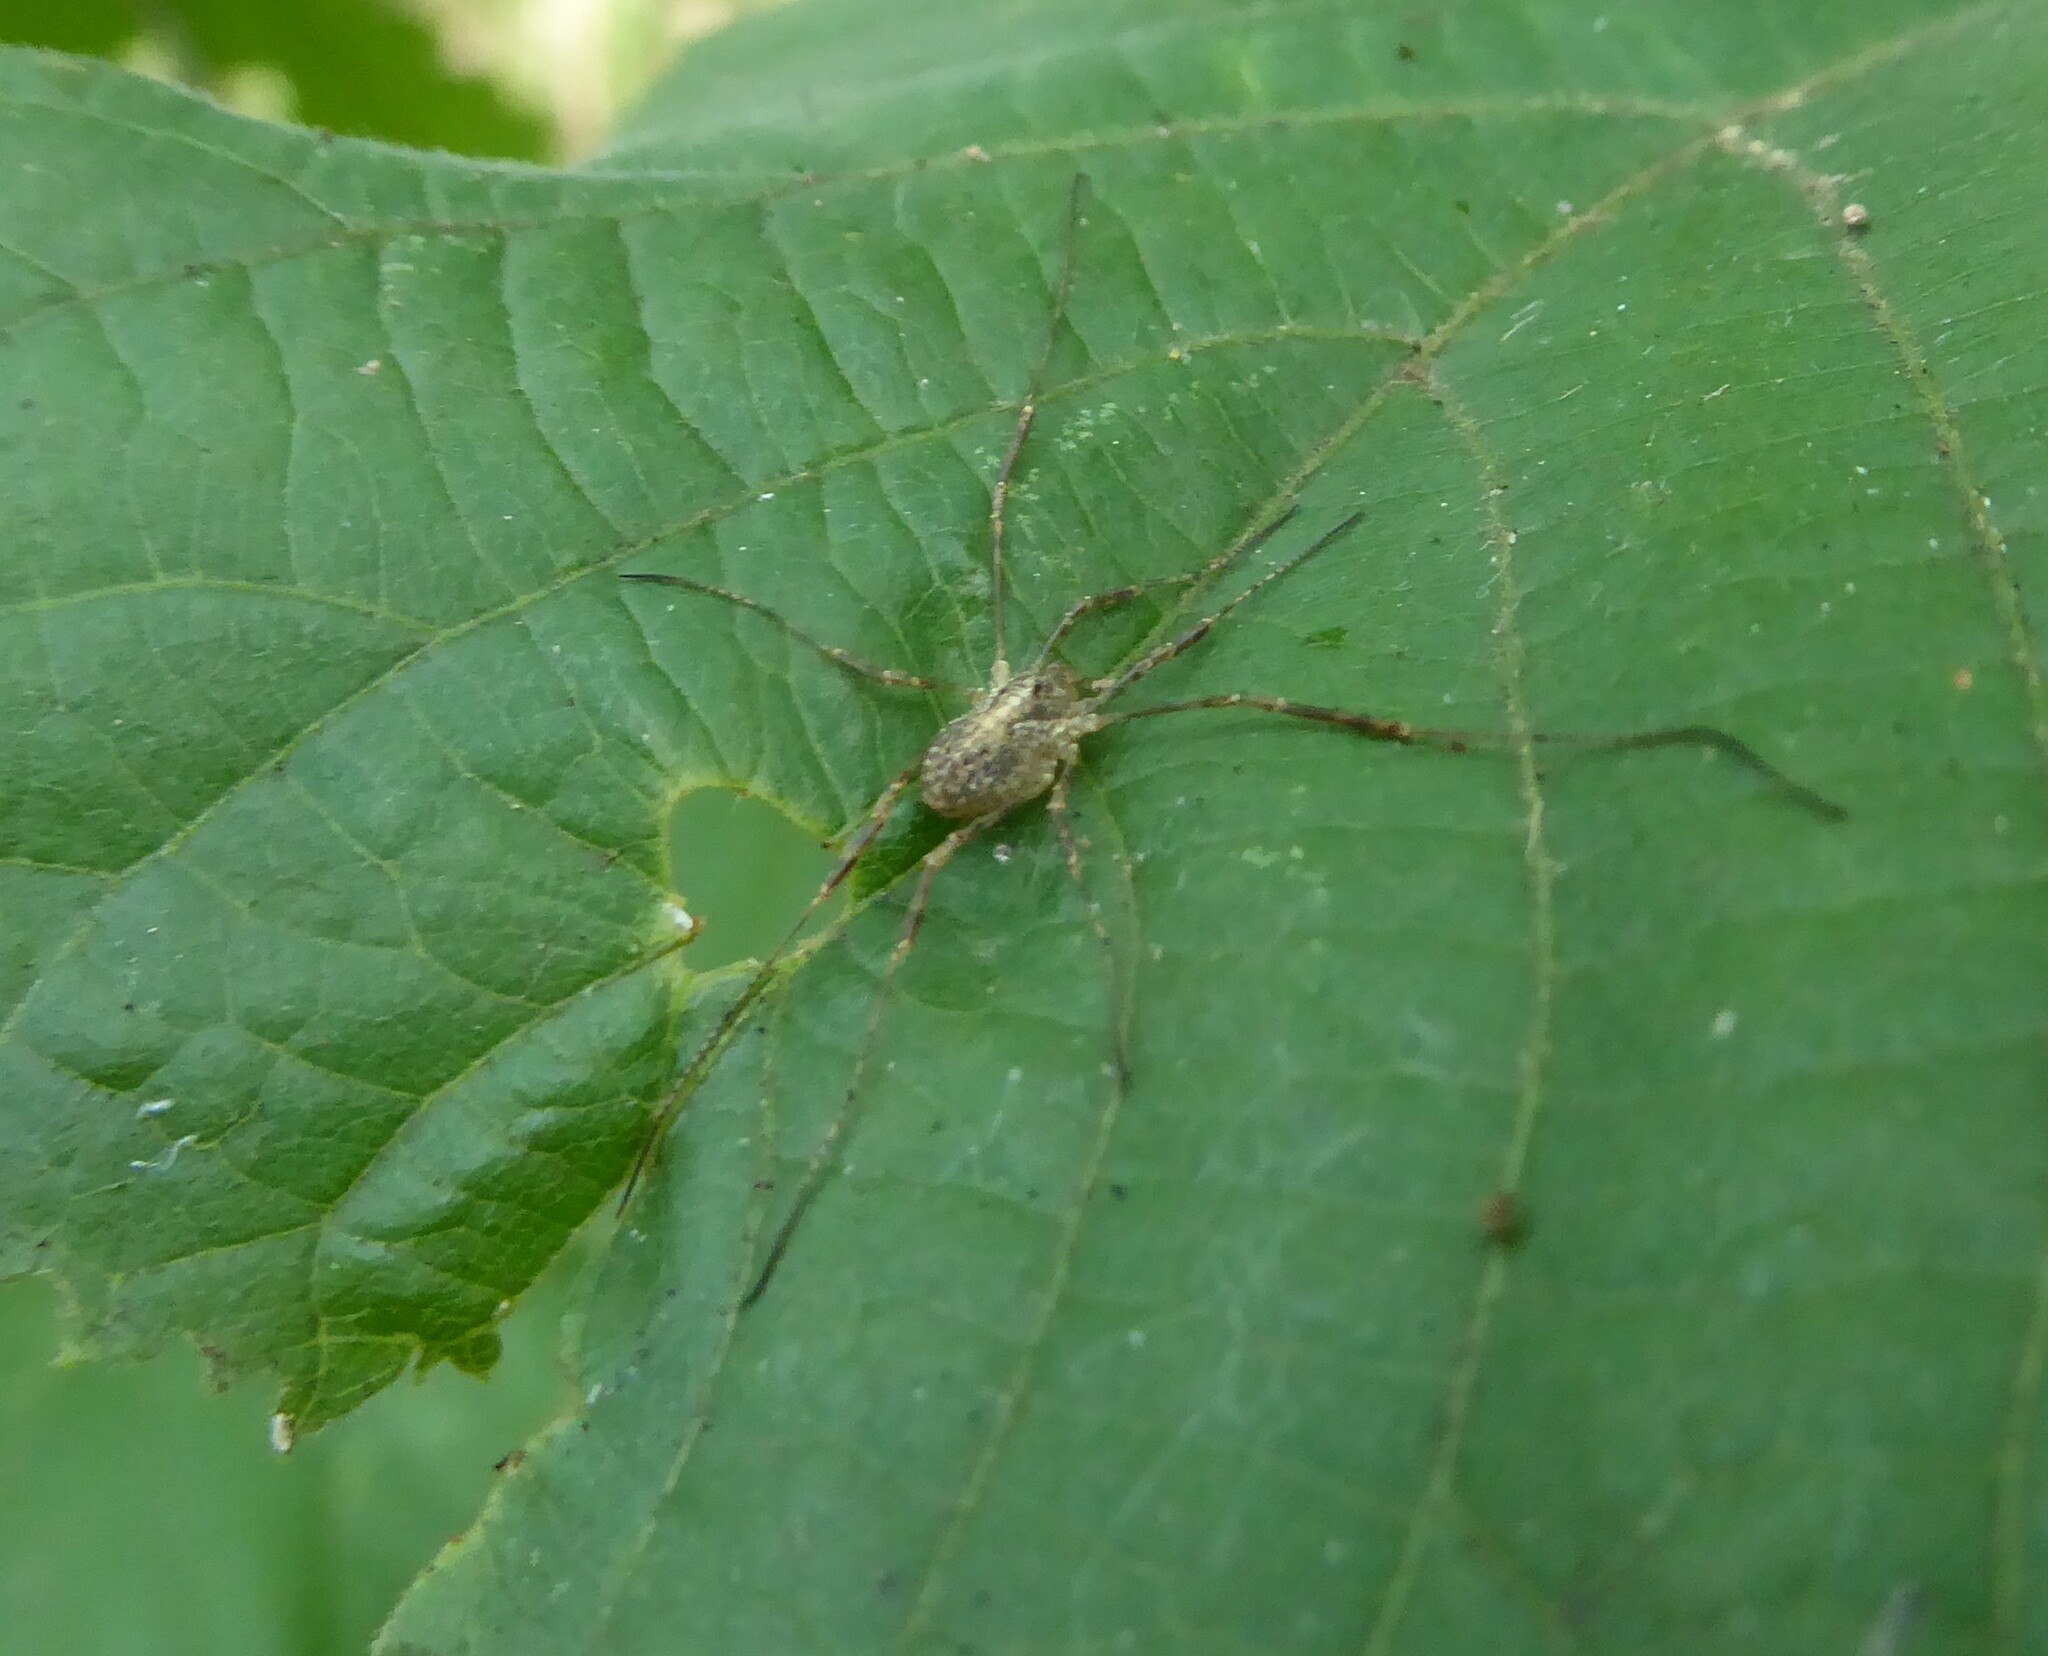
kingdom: Animalia
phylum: Arthropoda
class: Arachnida
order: Opiliones
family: Phalangiidae
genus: Paroligolophus
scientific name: Paroligolophus agrestis
